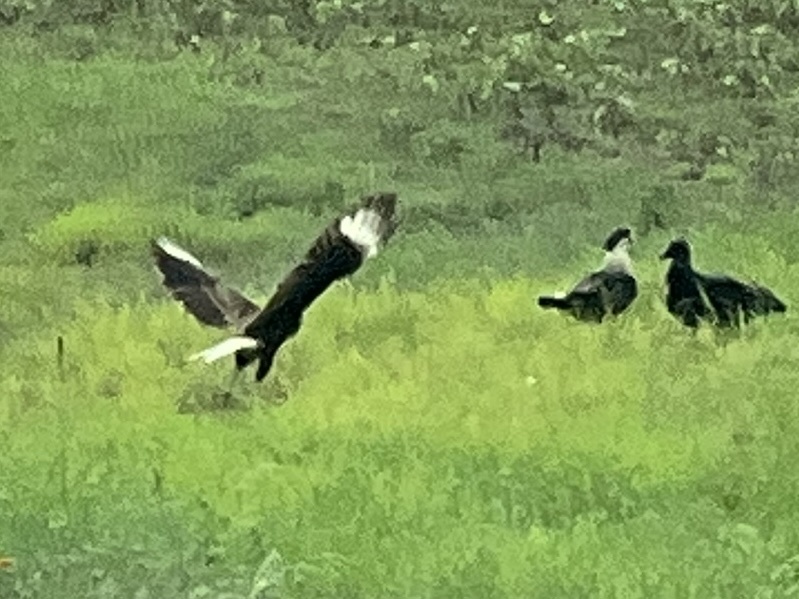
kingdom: Animalia
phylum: Chordata
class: Aves
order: Falconiformes
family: Falconidae
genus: Caracara
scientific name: Caracara plancus
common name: Southern caracara
